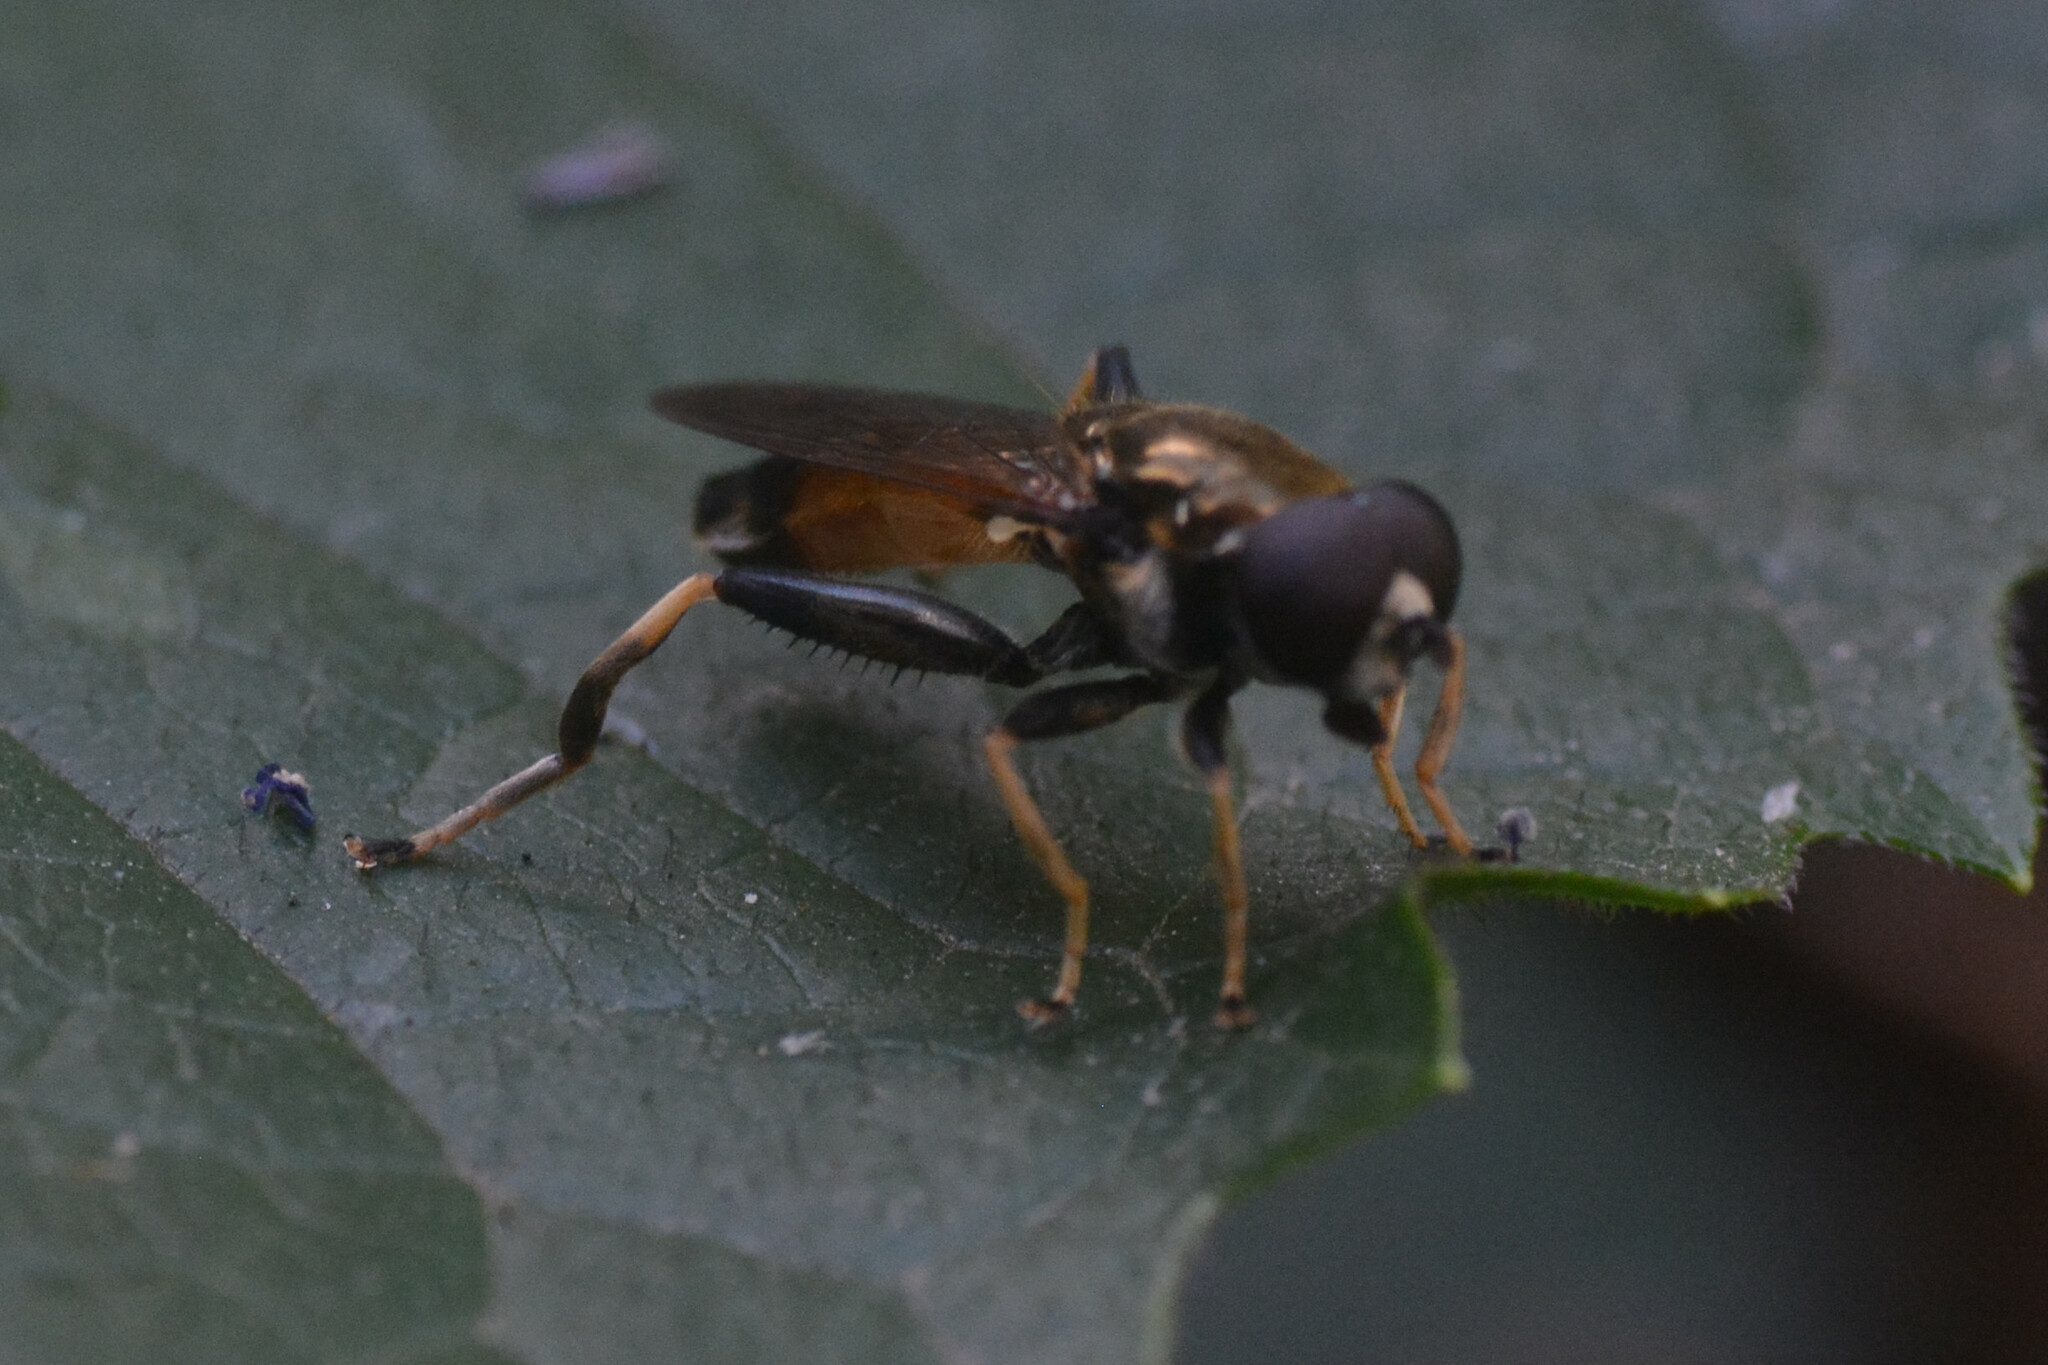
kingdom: Animalia
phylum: Arthropoda
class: Insecta
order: Diptera
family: Syrphidae
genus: Xylota
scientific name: Xylota segnis
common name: Brown-toed forest fly
